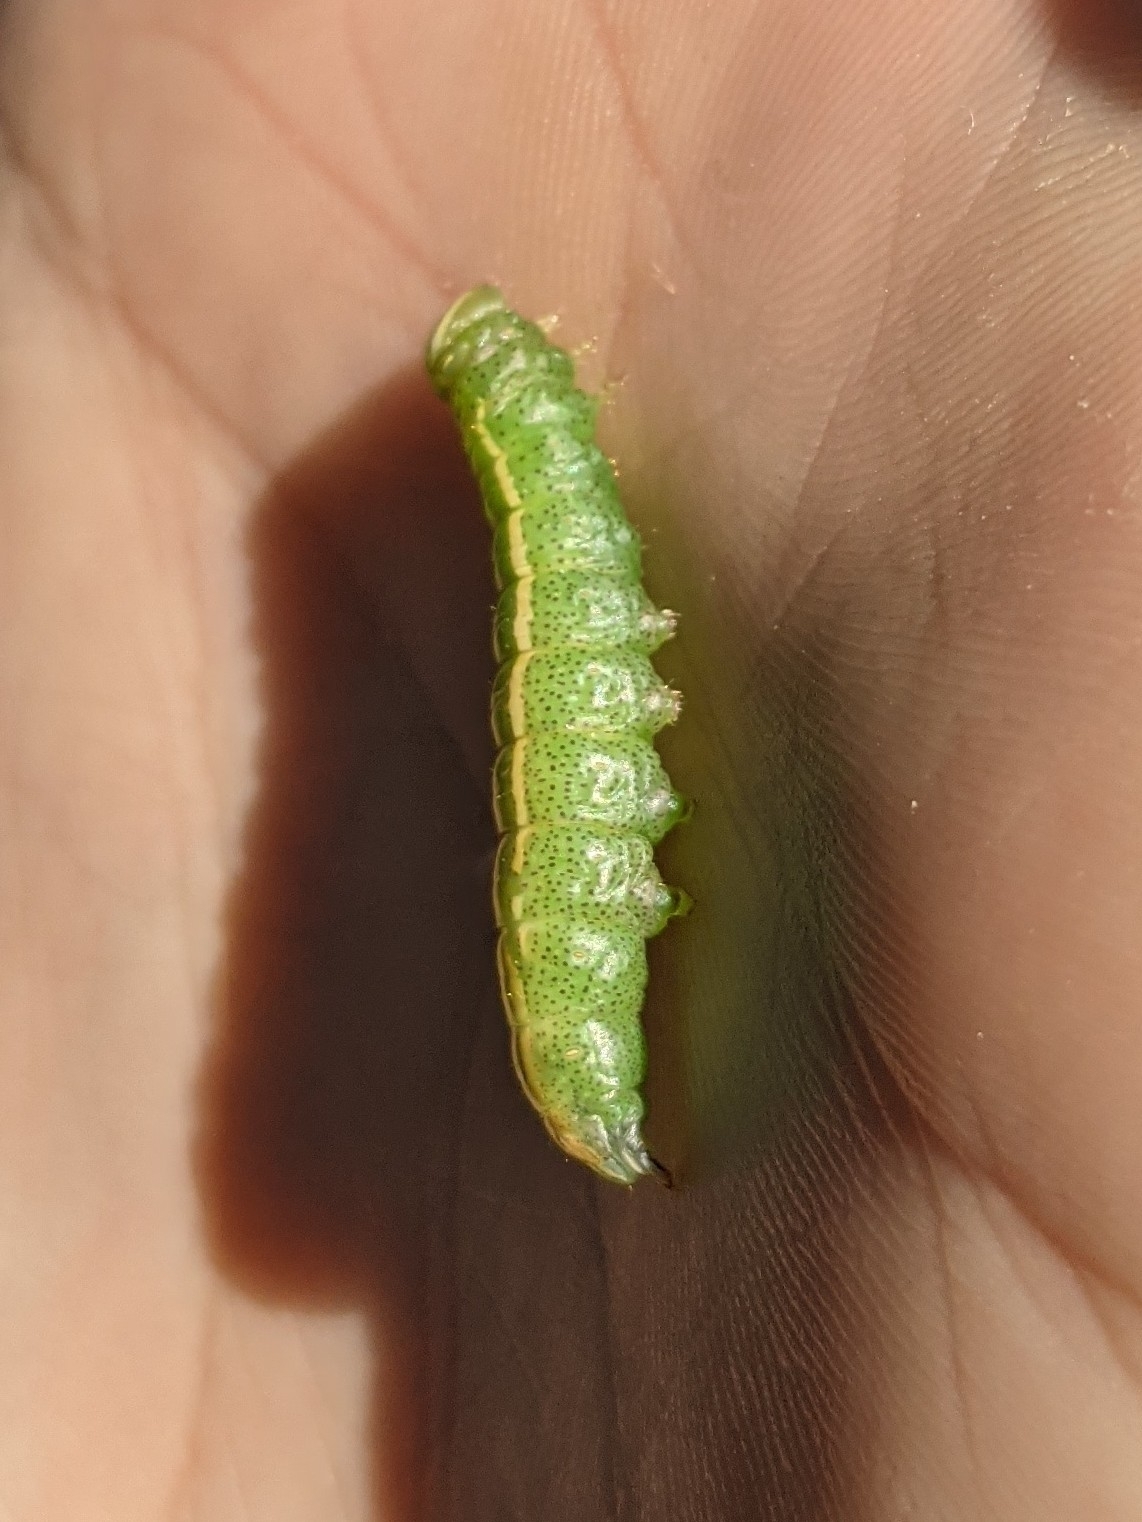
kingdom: Animalia
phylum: Arthropoda
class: Insecta
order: Lepidoptera
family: Notodontidae
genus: Disphragis
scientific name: Disphragis Cecrita guttivitta
